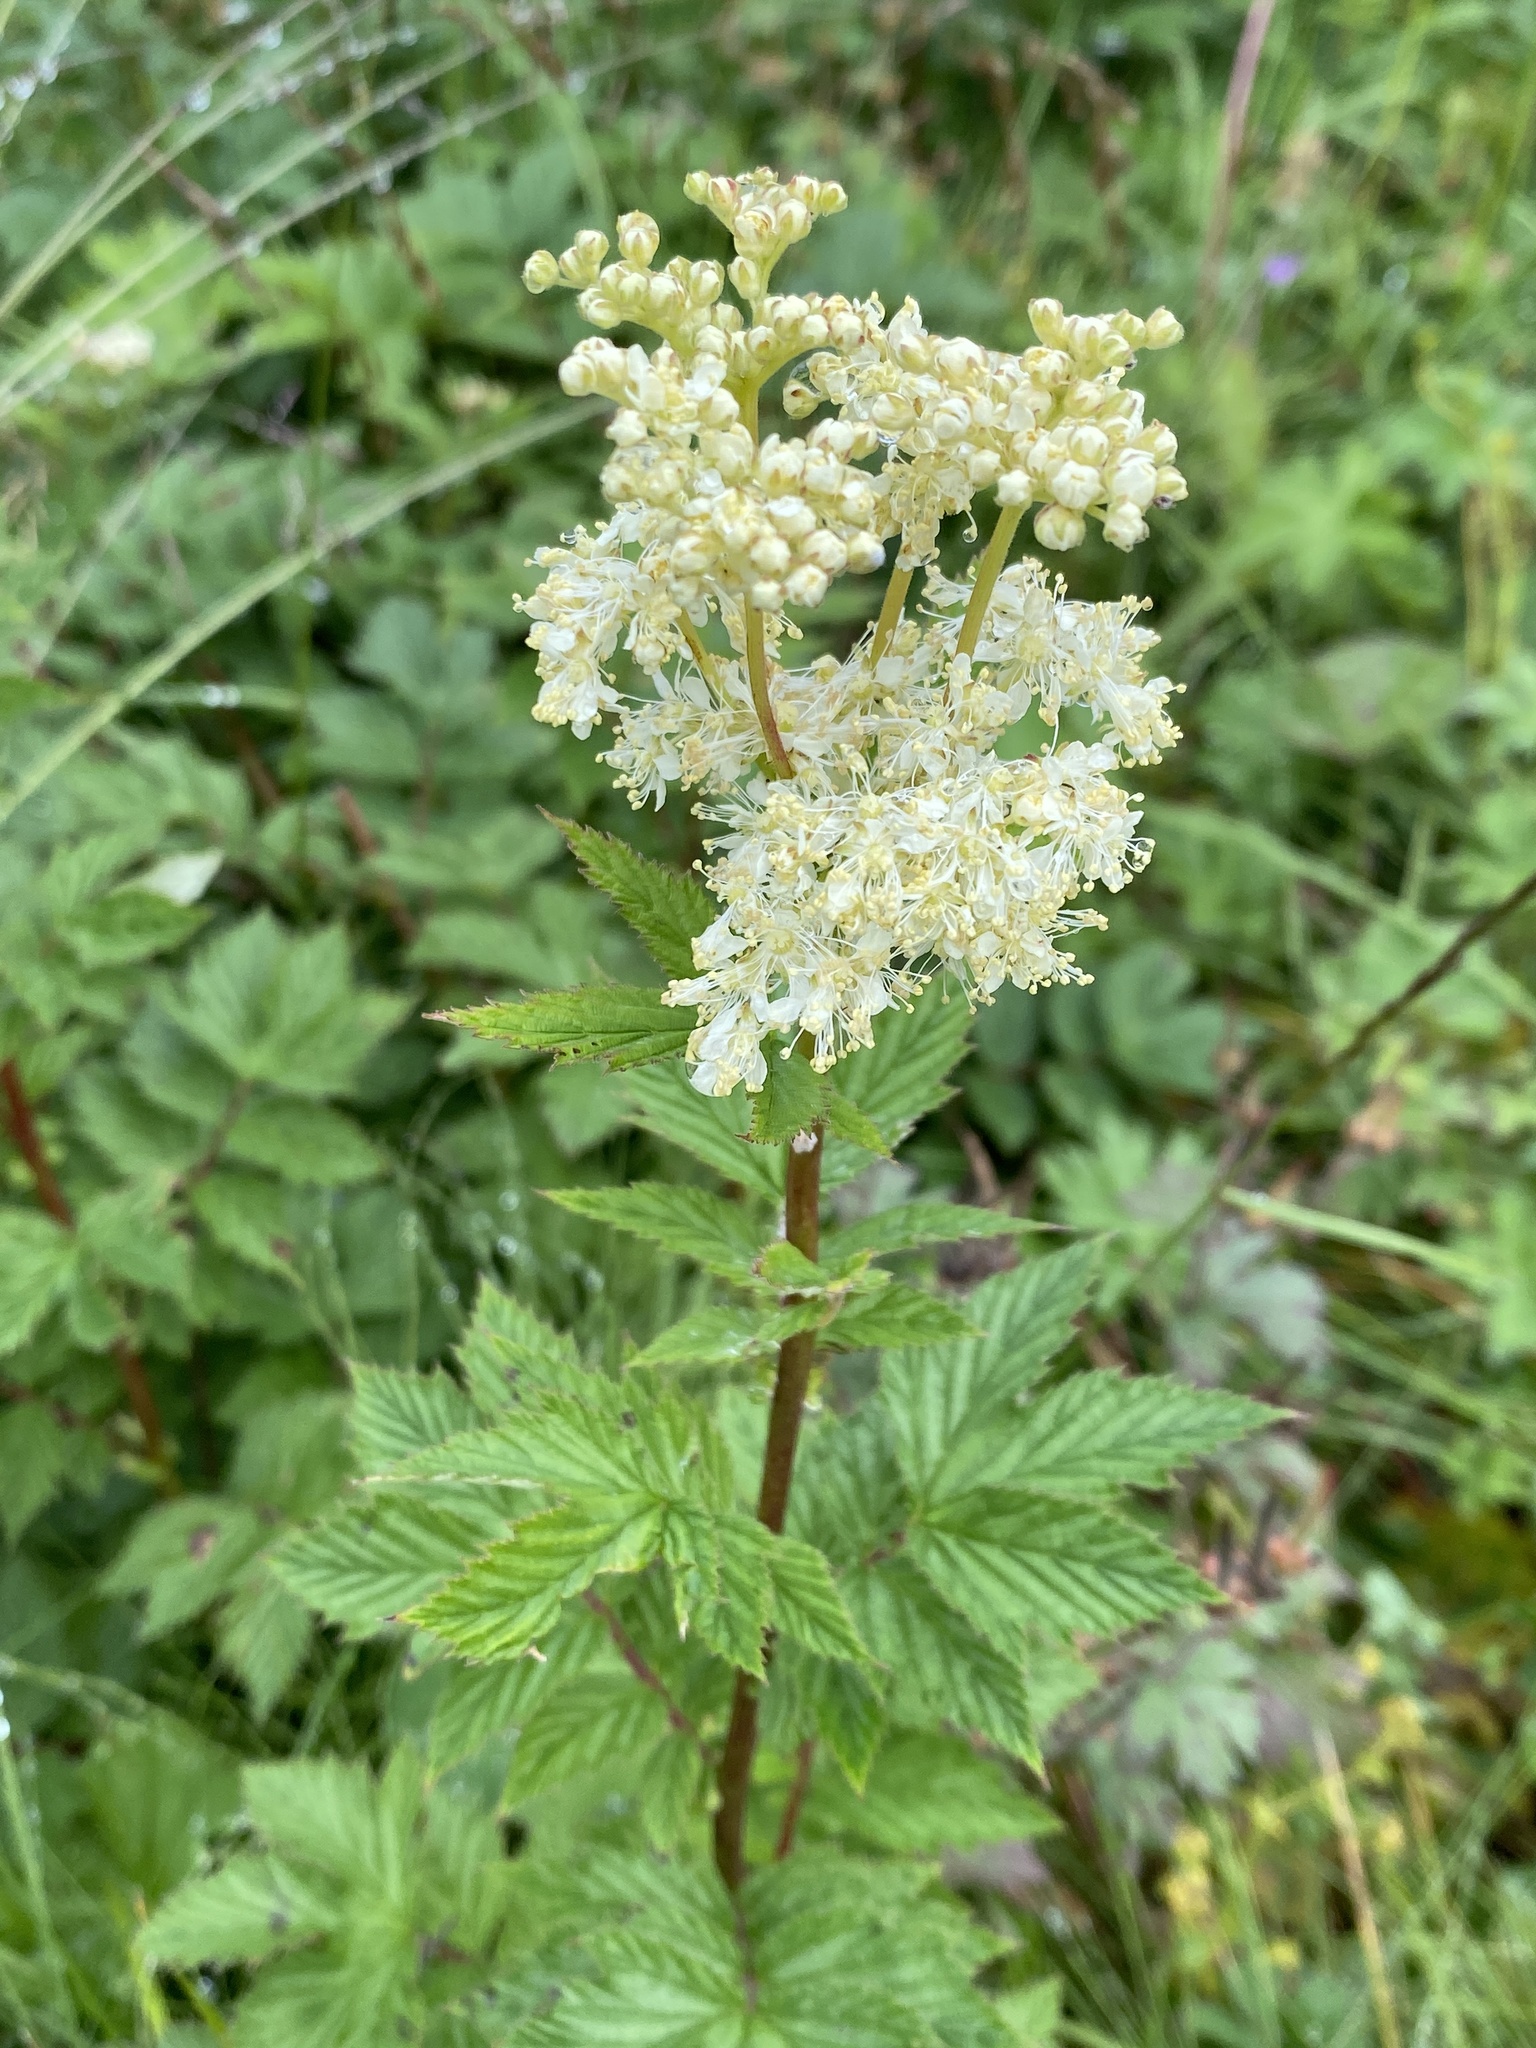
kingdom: Plantae
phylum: Tracheophyta
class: Magnoliopsida
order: Rosales
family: Rosaceae
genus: Filipendula
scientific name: Filipendula ulmaria
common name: Meadowsweet
